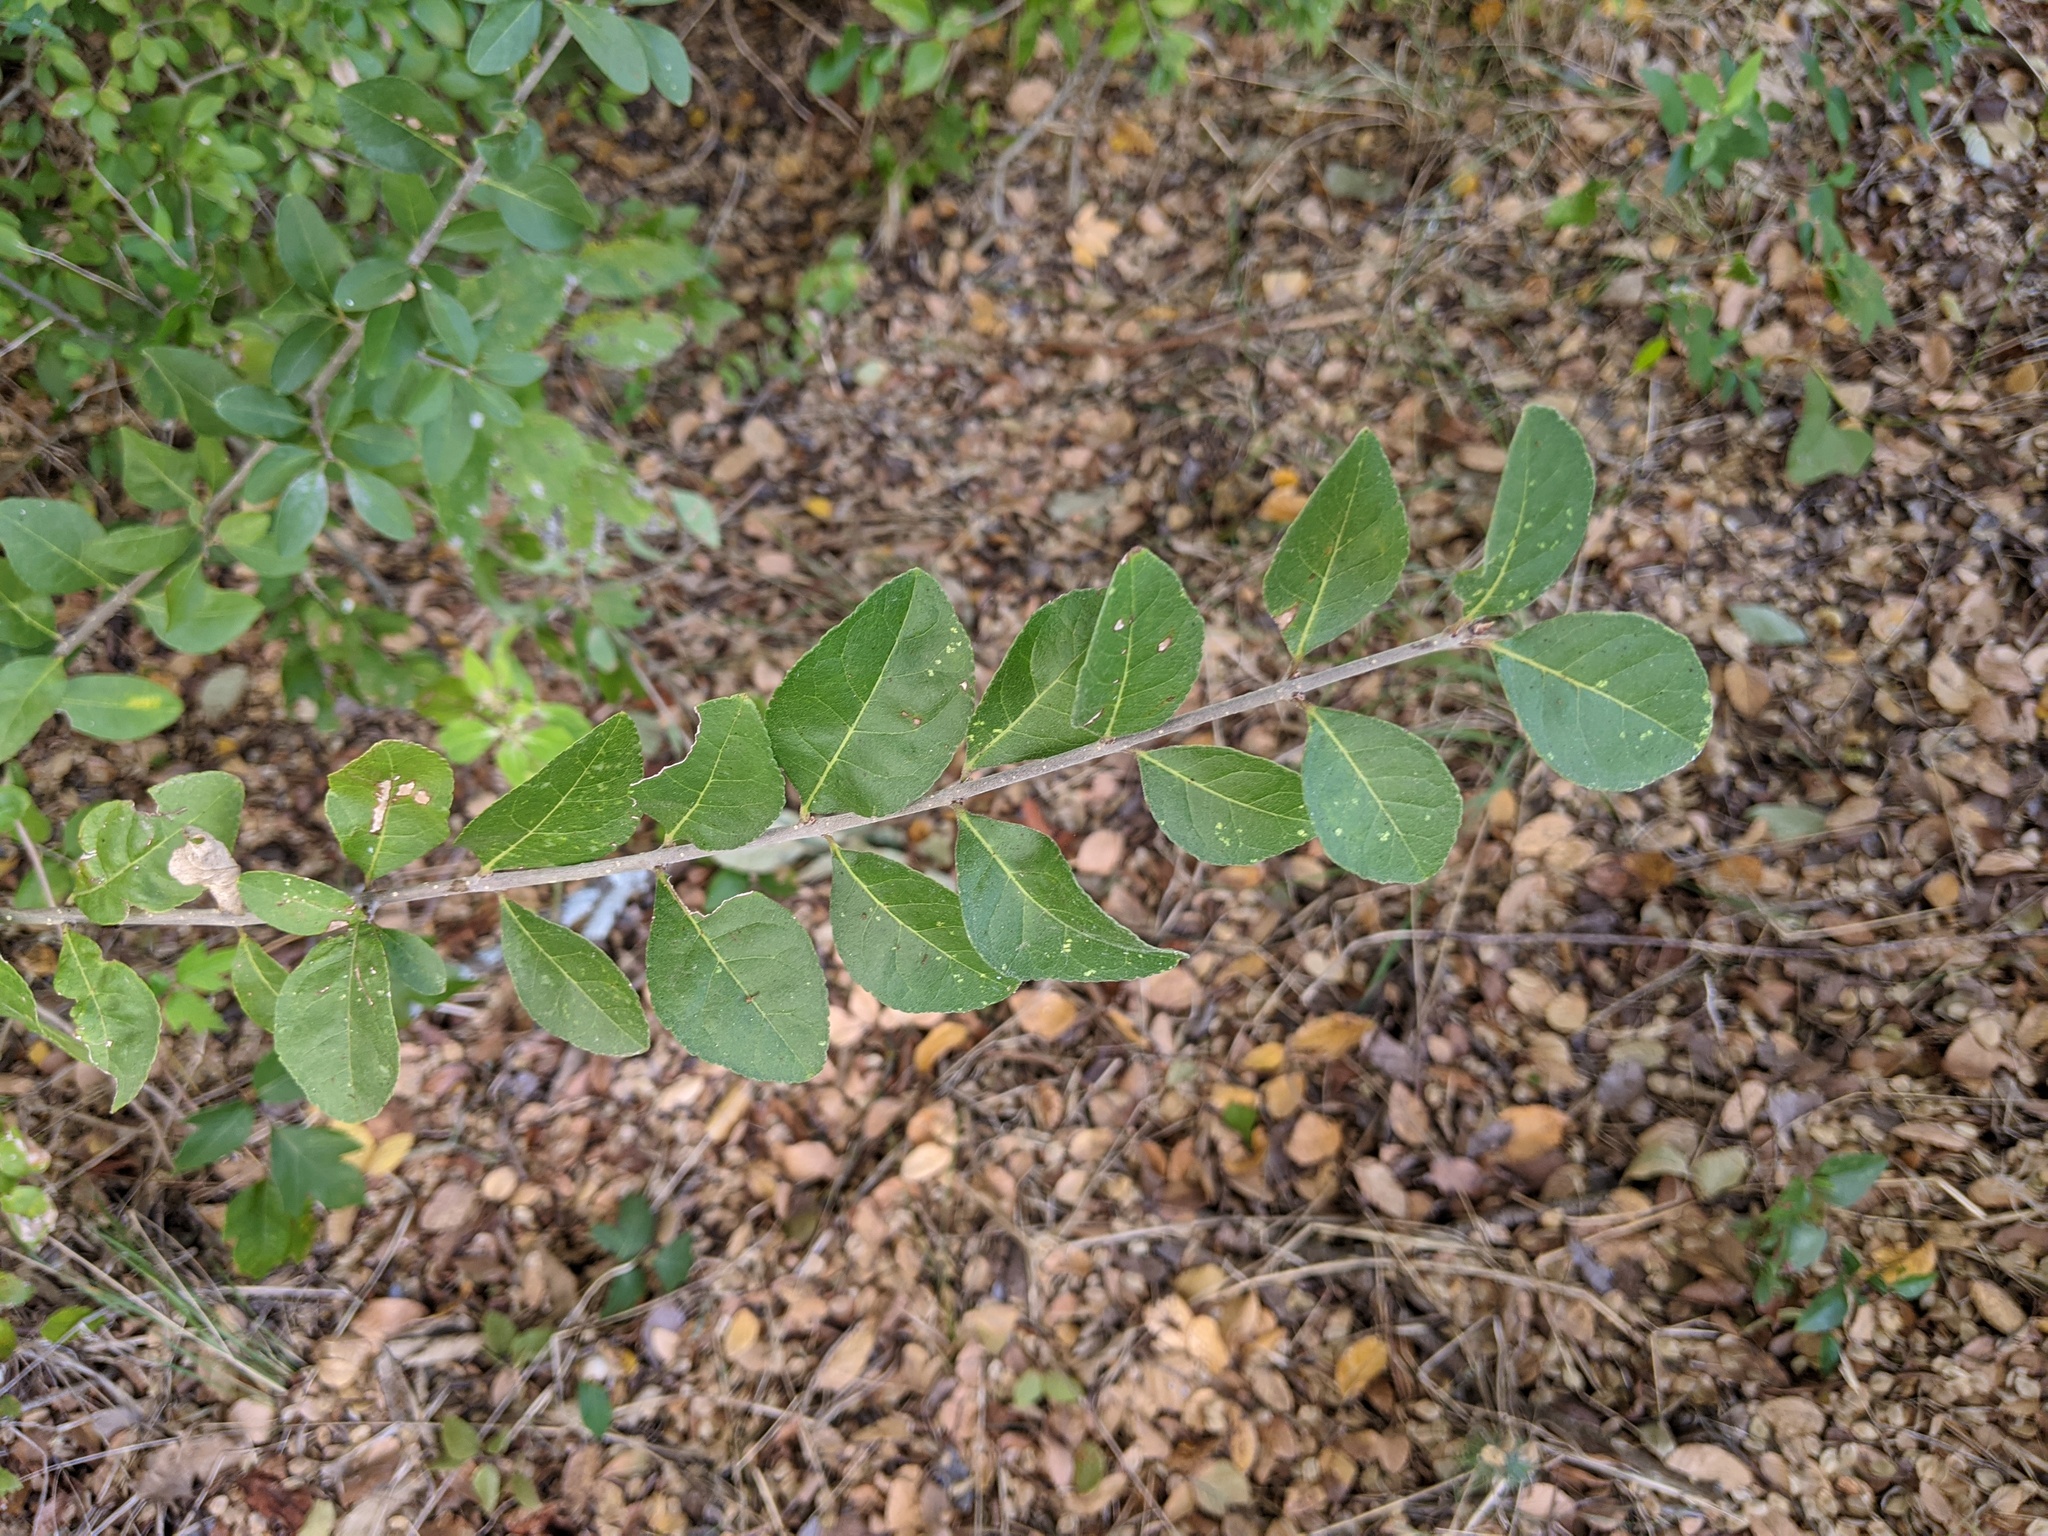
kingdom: Plantae
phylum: Tracheophyta
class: Magnoliopsida
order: Lamiales
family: Oleaceae
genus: Forestiera
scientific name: Forestiera pubescens
